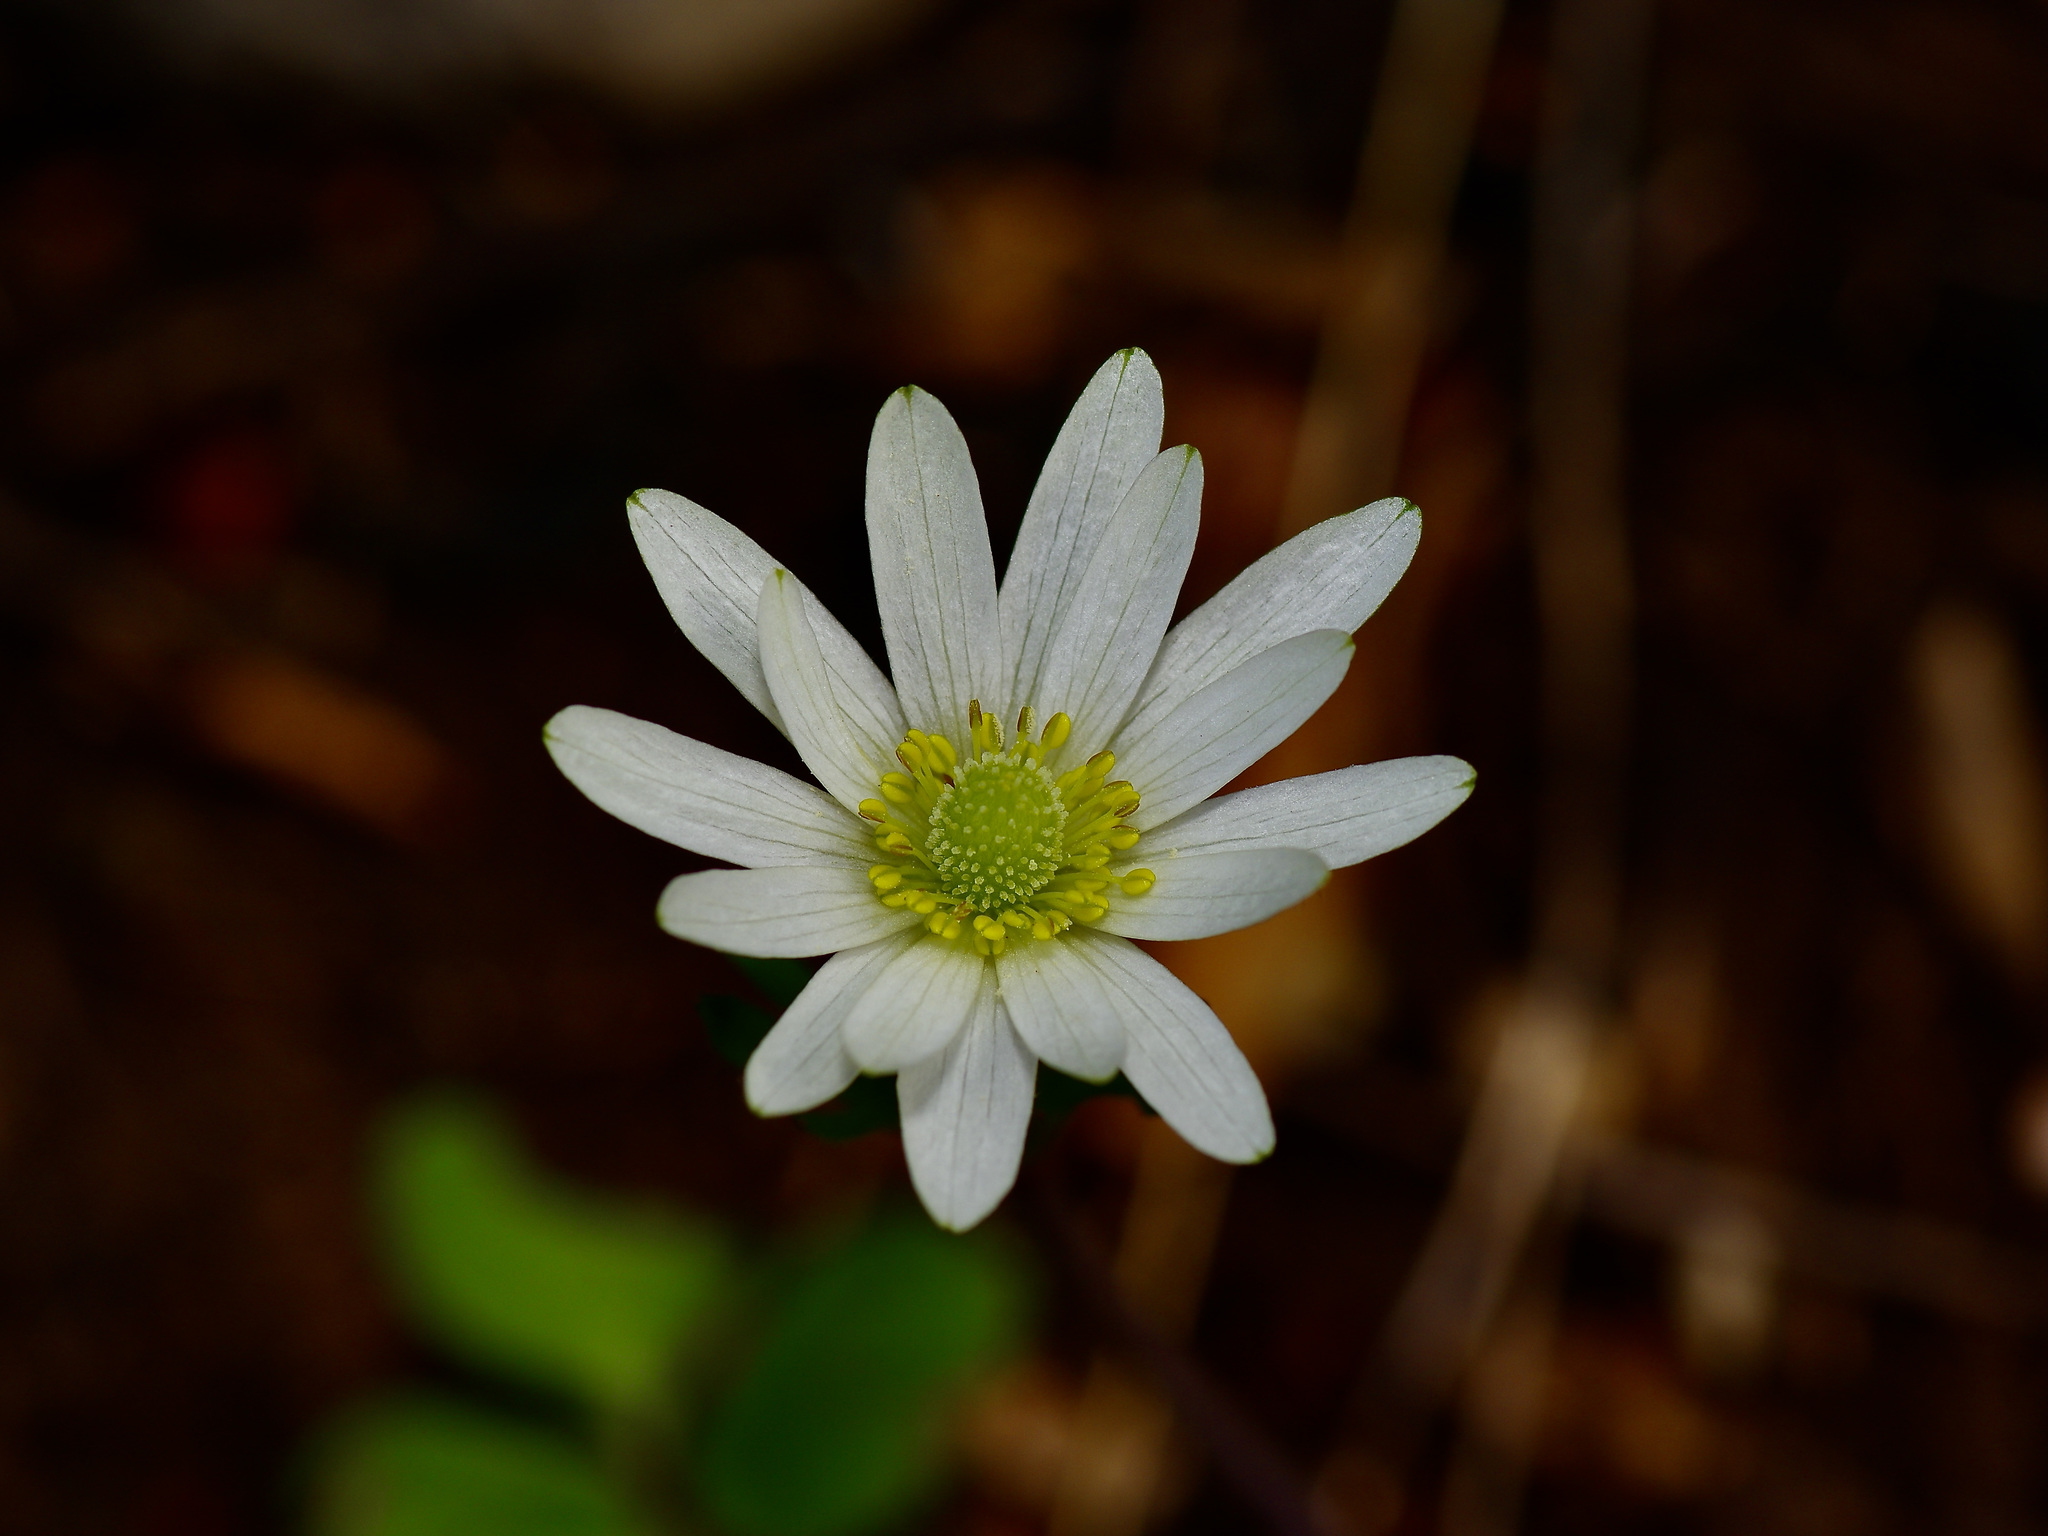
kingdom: Plantae
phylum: Tracheophyta
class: Magnoliopsida
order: Ranunculales
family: Ranunculaceae
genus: Anemone
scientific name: Anemone berlandieri
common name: Ten-petal anemone
